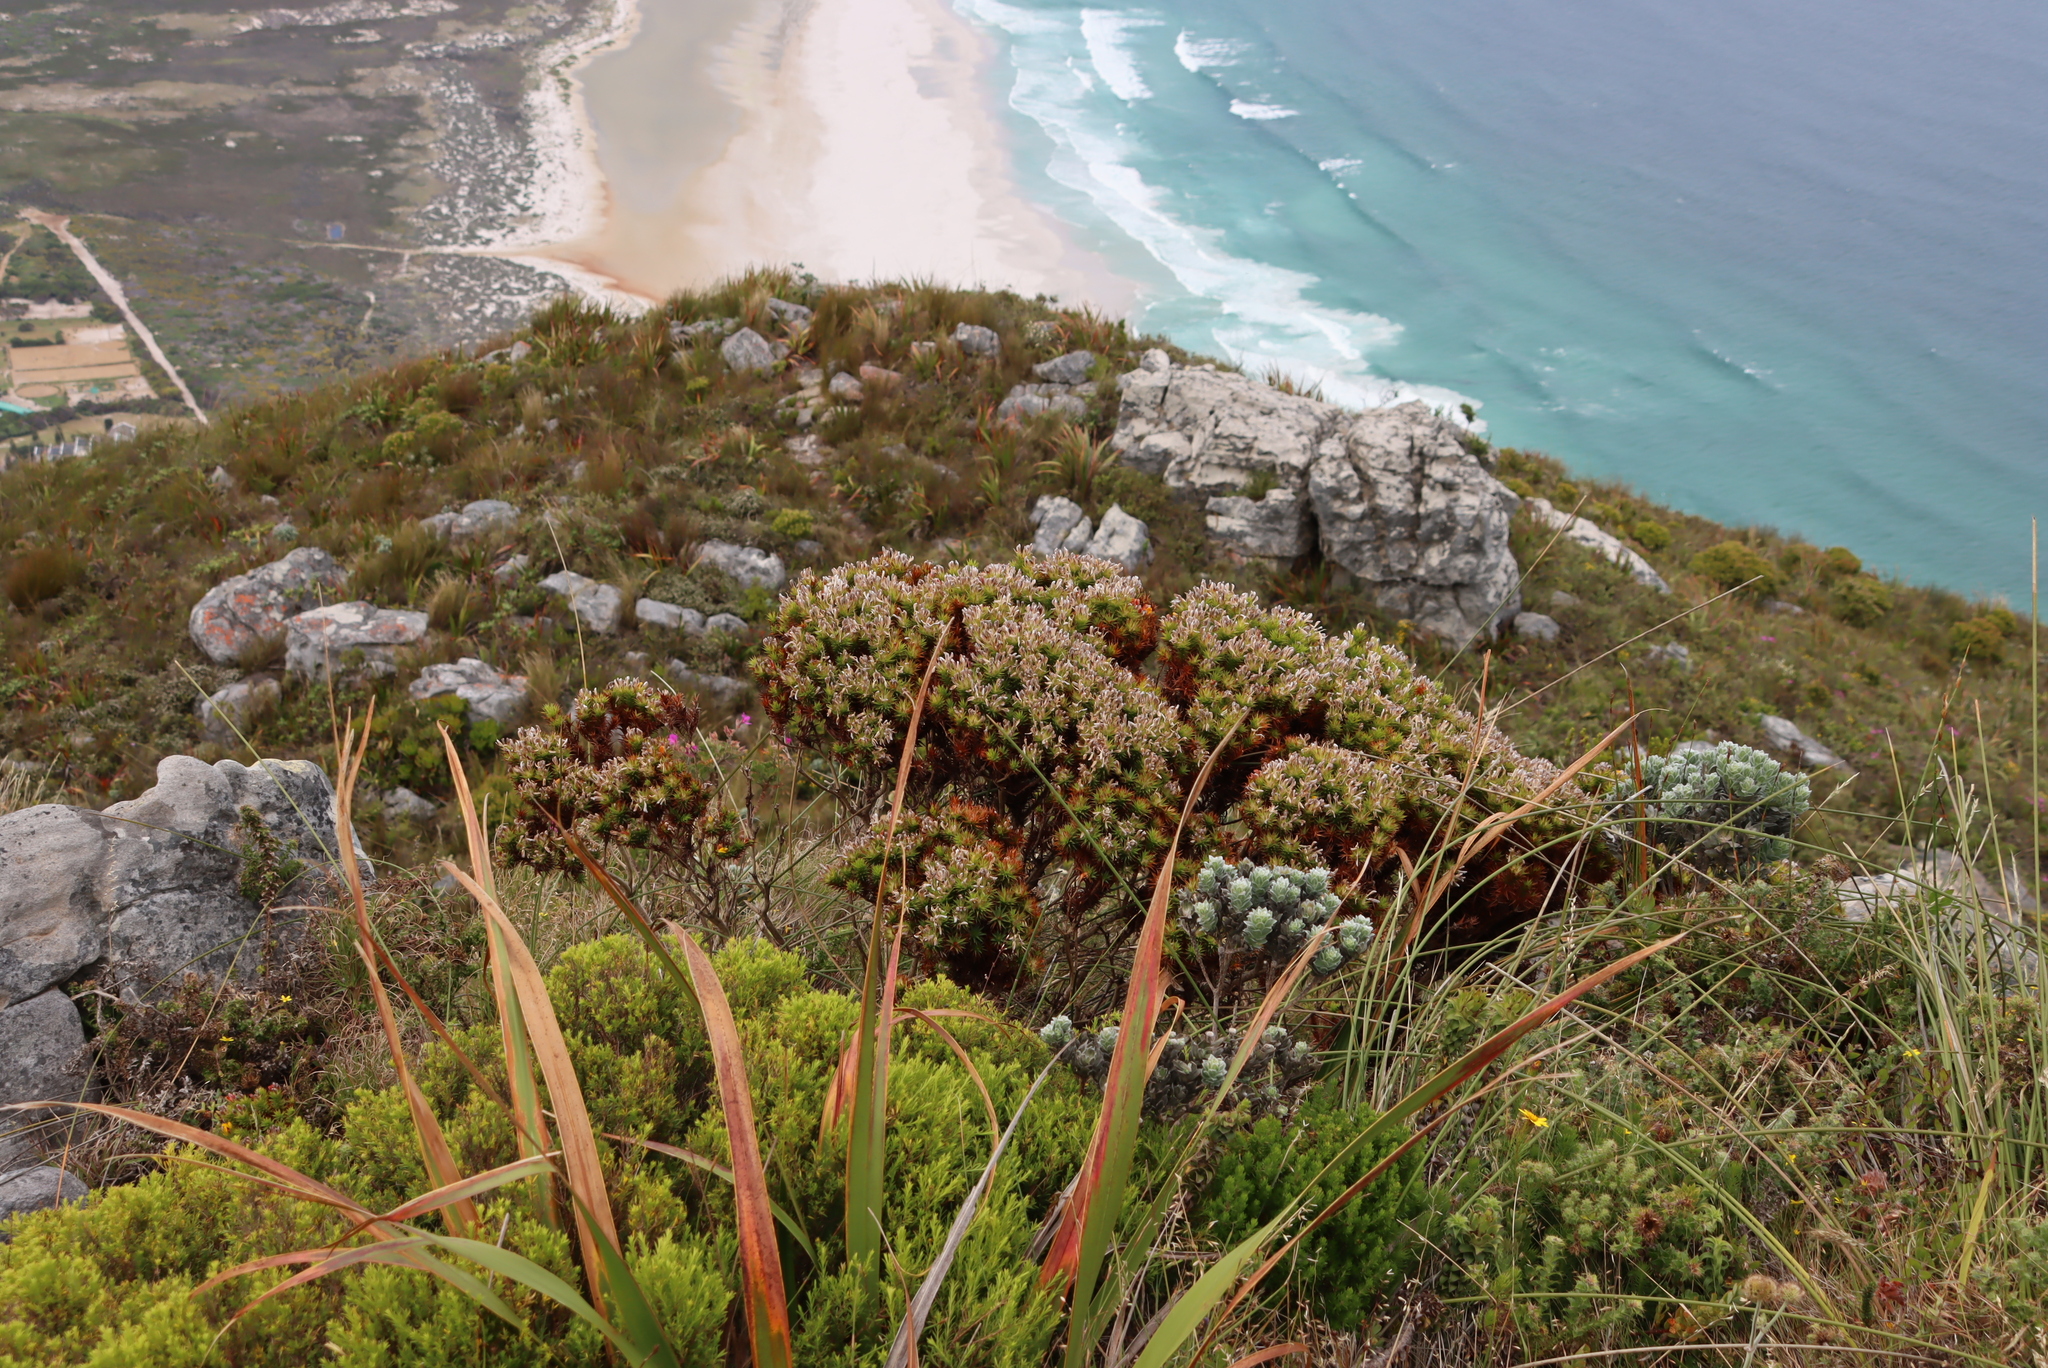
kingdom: Plantae
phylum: Tracheophyta
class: Magnoliopsida
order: Fabales
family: Fabaceae
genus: Aspalathus
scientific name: Aspalathus barbata
